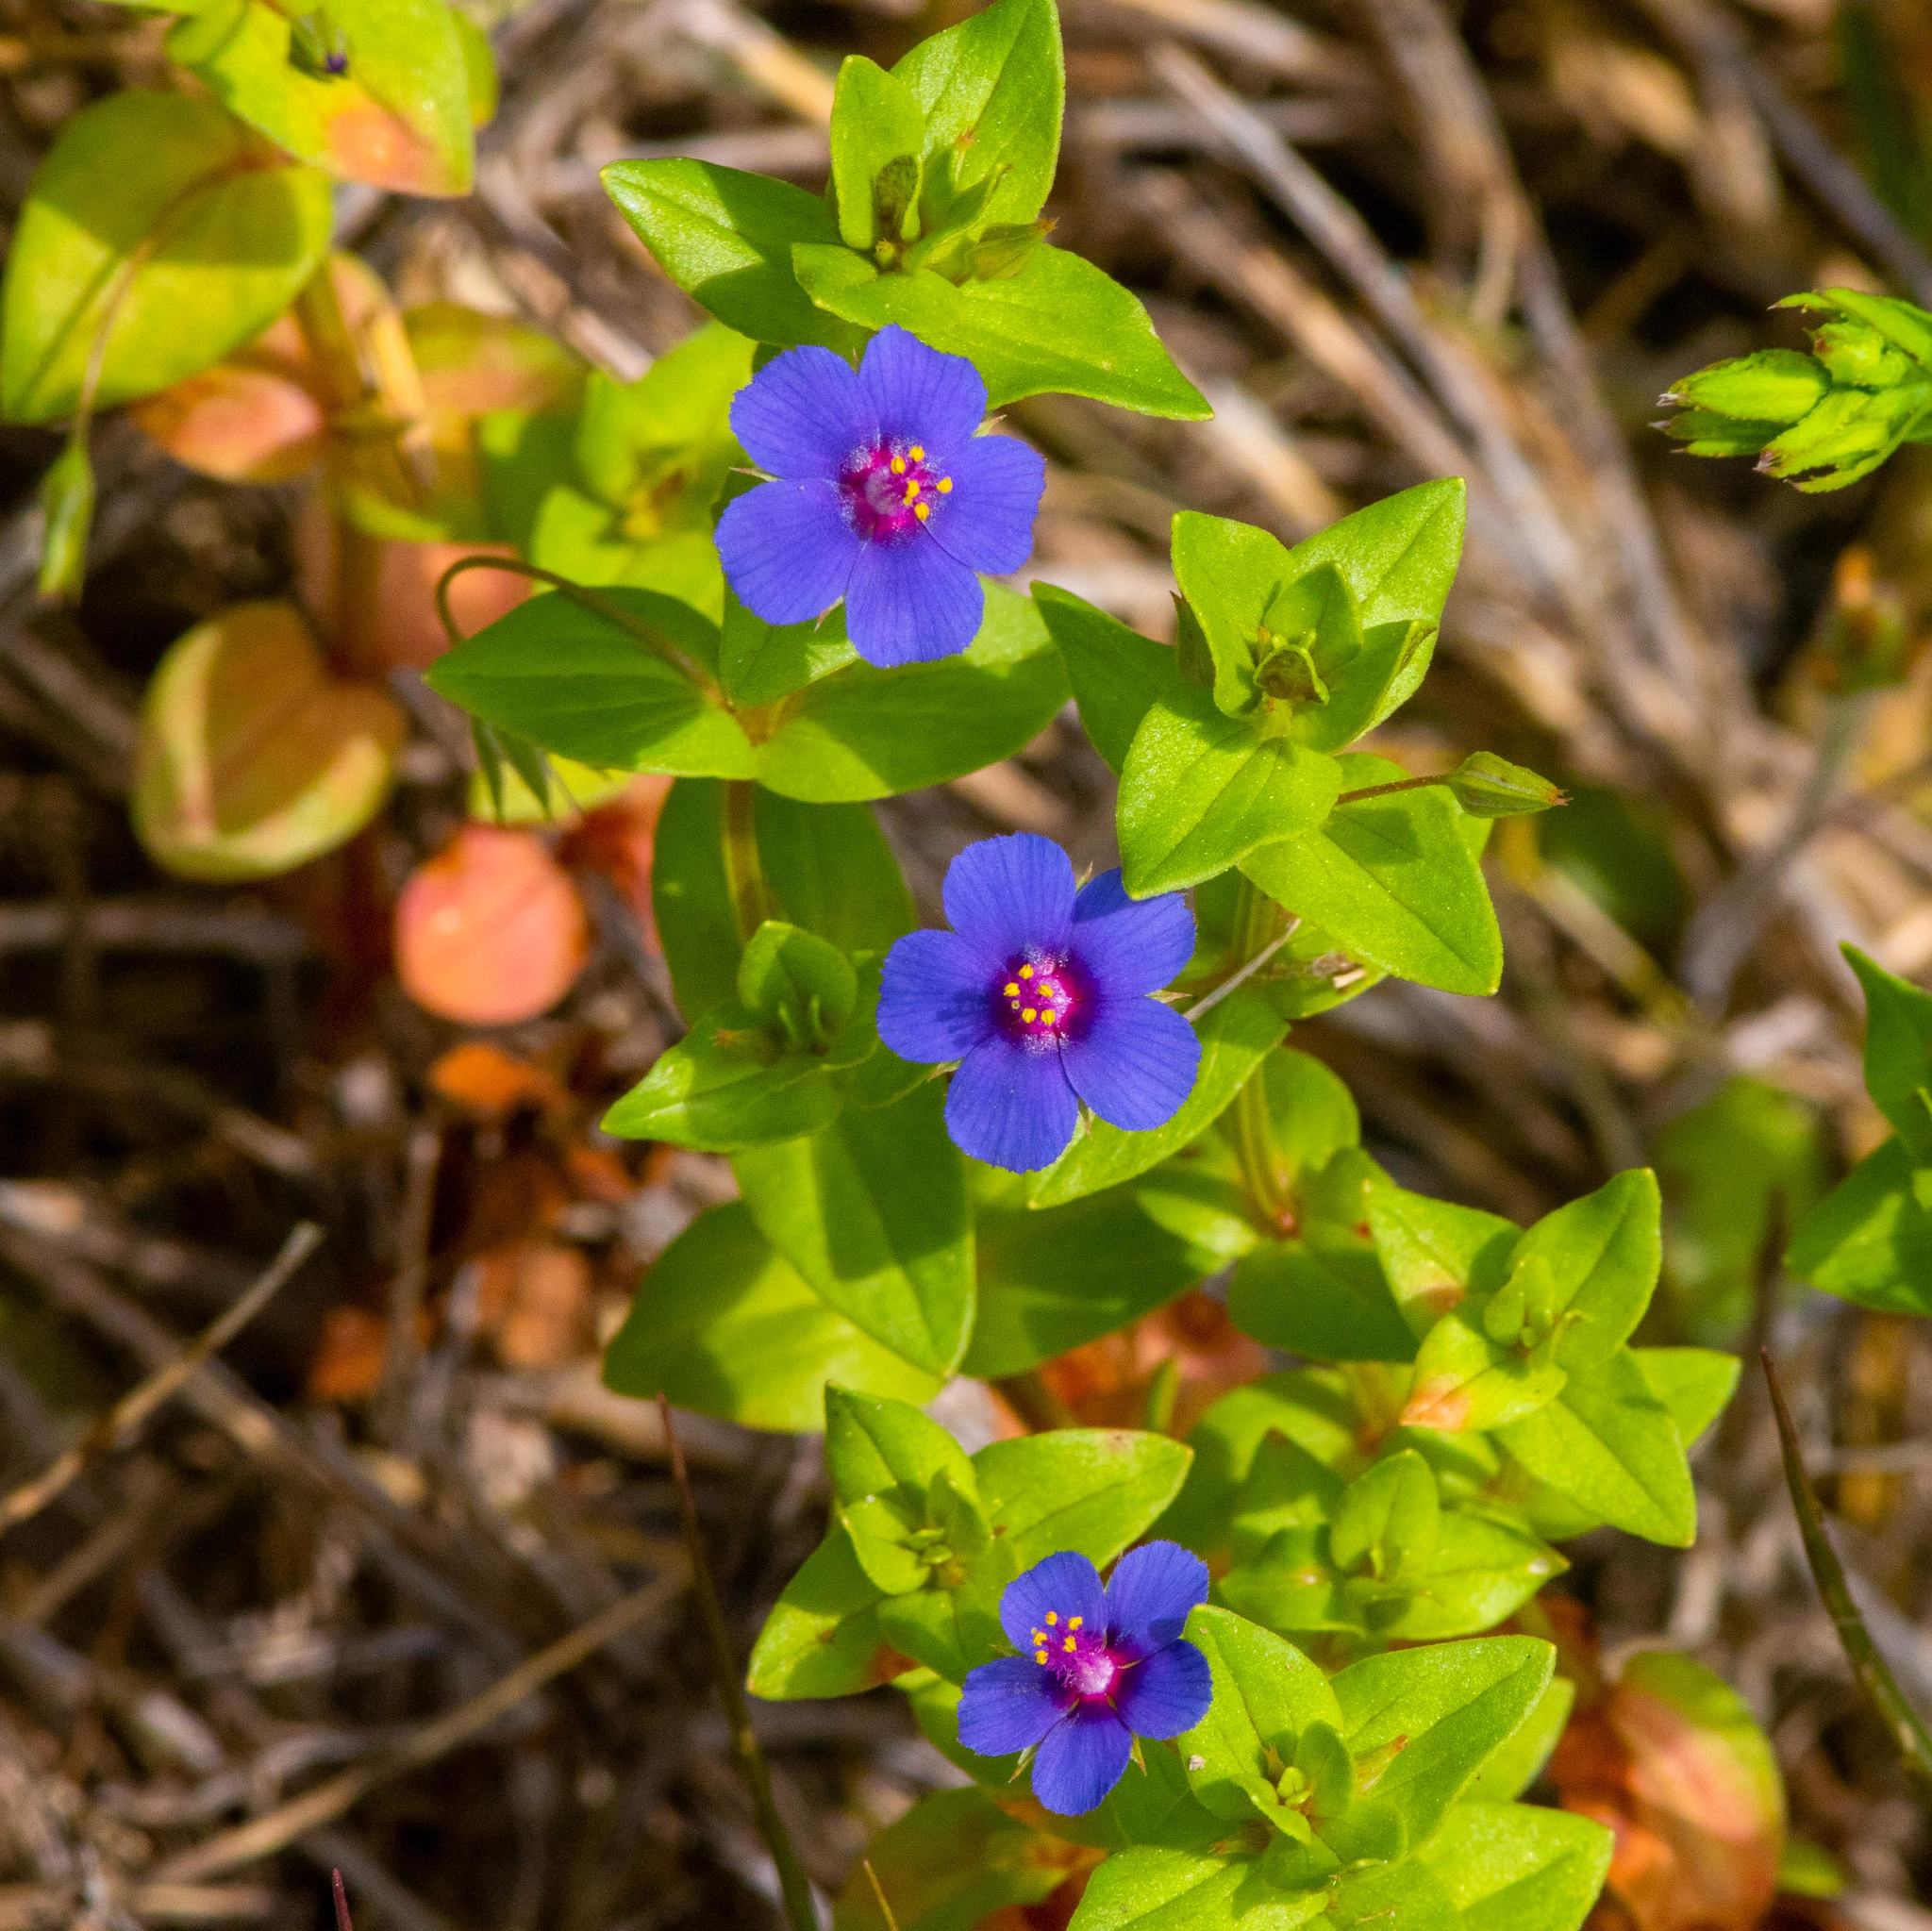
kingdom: Plantae
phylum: Tracheophyta
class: Magnoliopsida
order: Ericales
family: Primulaceae
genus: Lysimachia
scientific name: Lysimachia foemina
